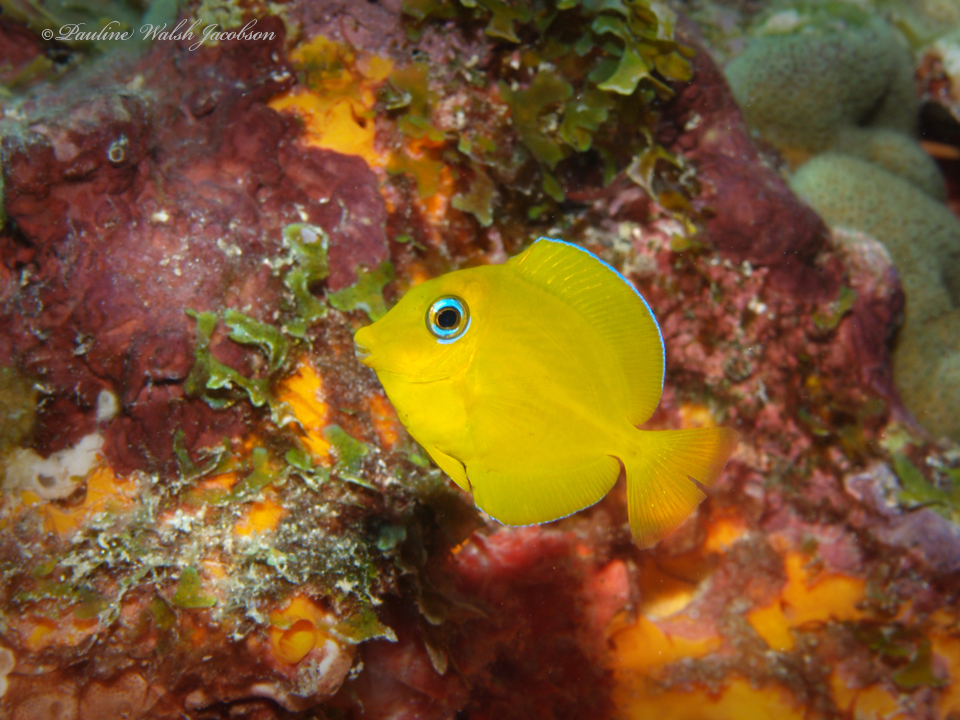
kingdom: Animalia
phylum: Chordata
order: Perciformes
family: Acanthuridae
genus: Acanthurus
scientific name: Acanthurus coeruleus
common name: Blue tang
